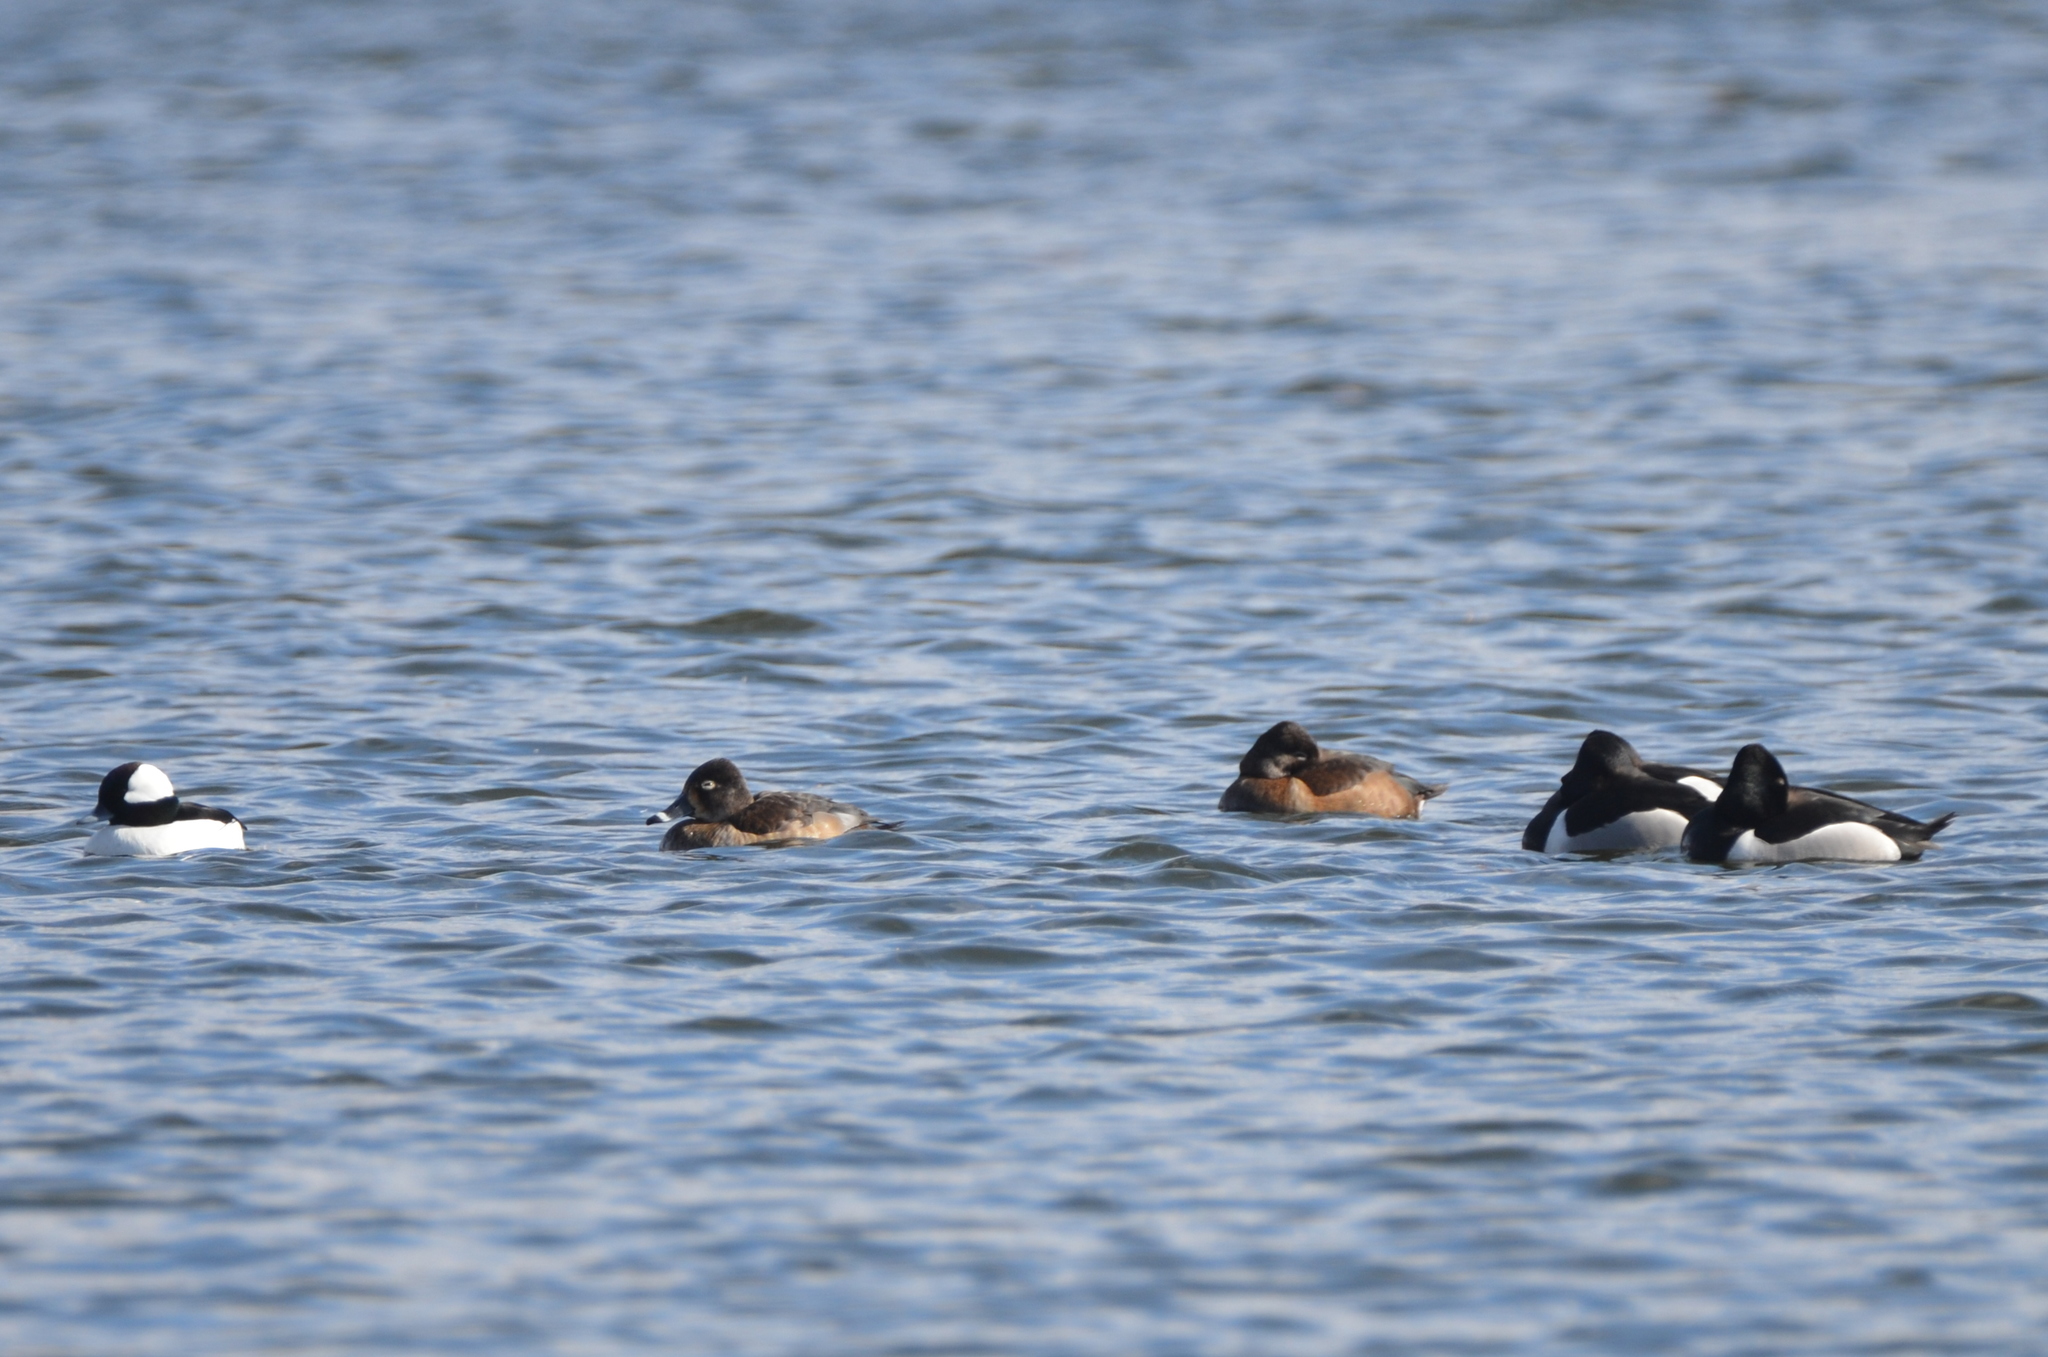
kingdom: Animalia
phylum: Chordata
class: Aves
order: Anseriformes
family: Anatidae
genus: Aythya
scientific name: Aythya collaris
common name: Ring-necked duck
